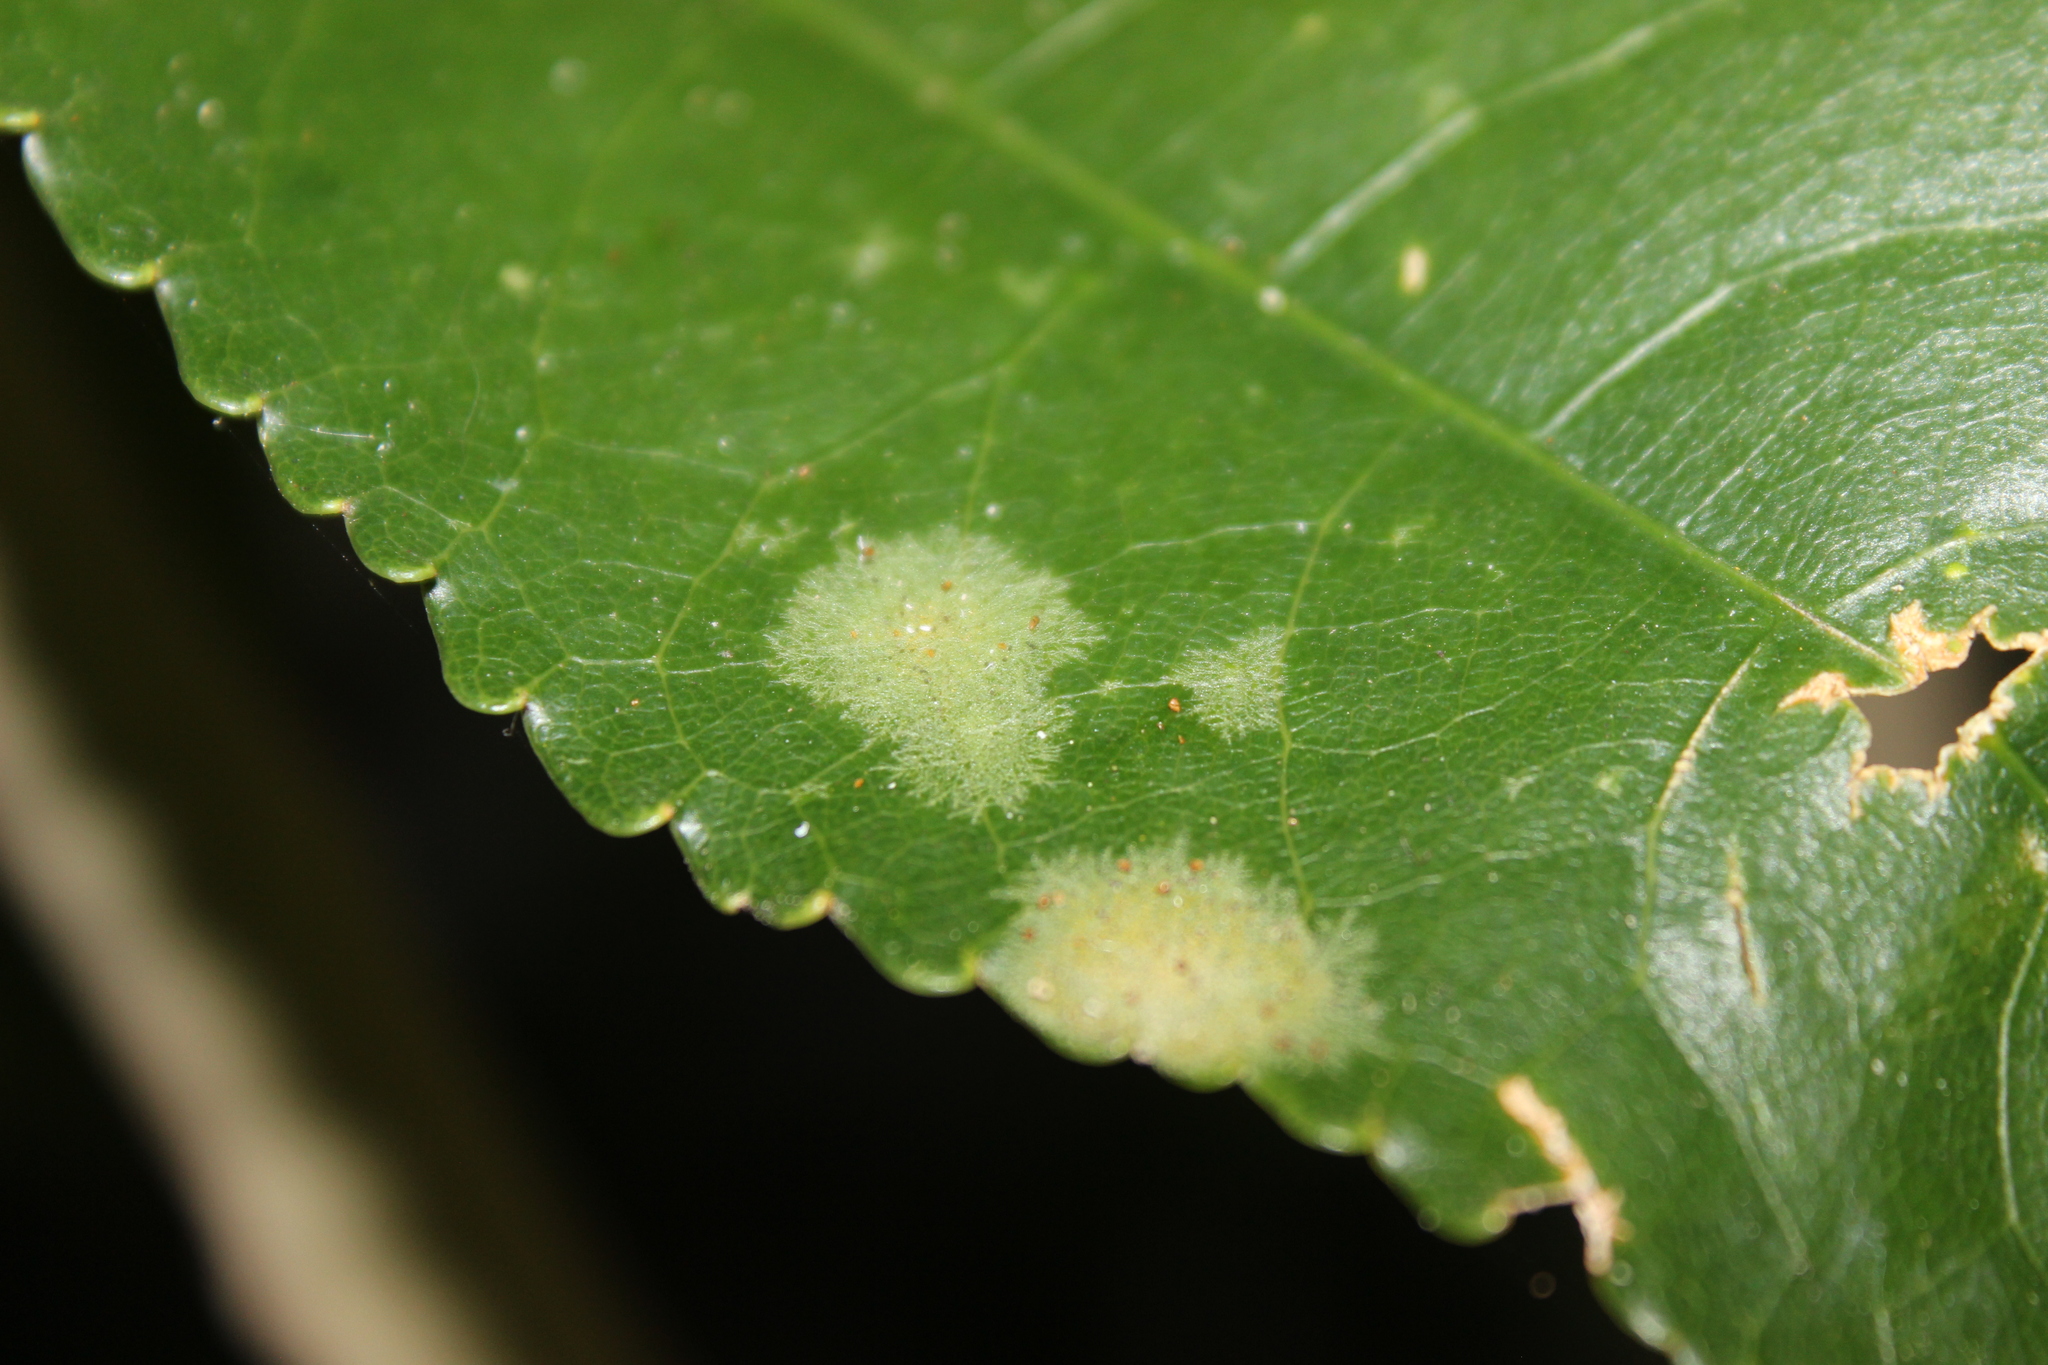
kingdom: Plantae
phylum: Chlorophyta
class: Ulvophyceae
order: Trentepohliales
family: Trentepohliaceae
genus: Cephaleuros
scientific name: Cephaleuros
